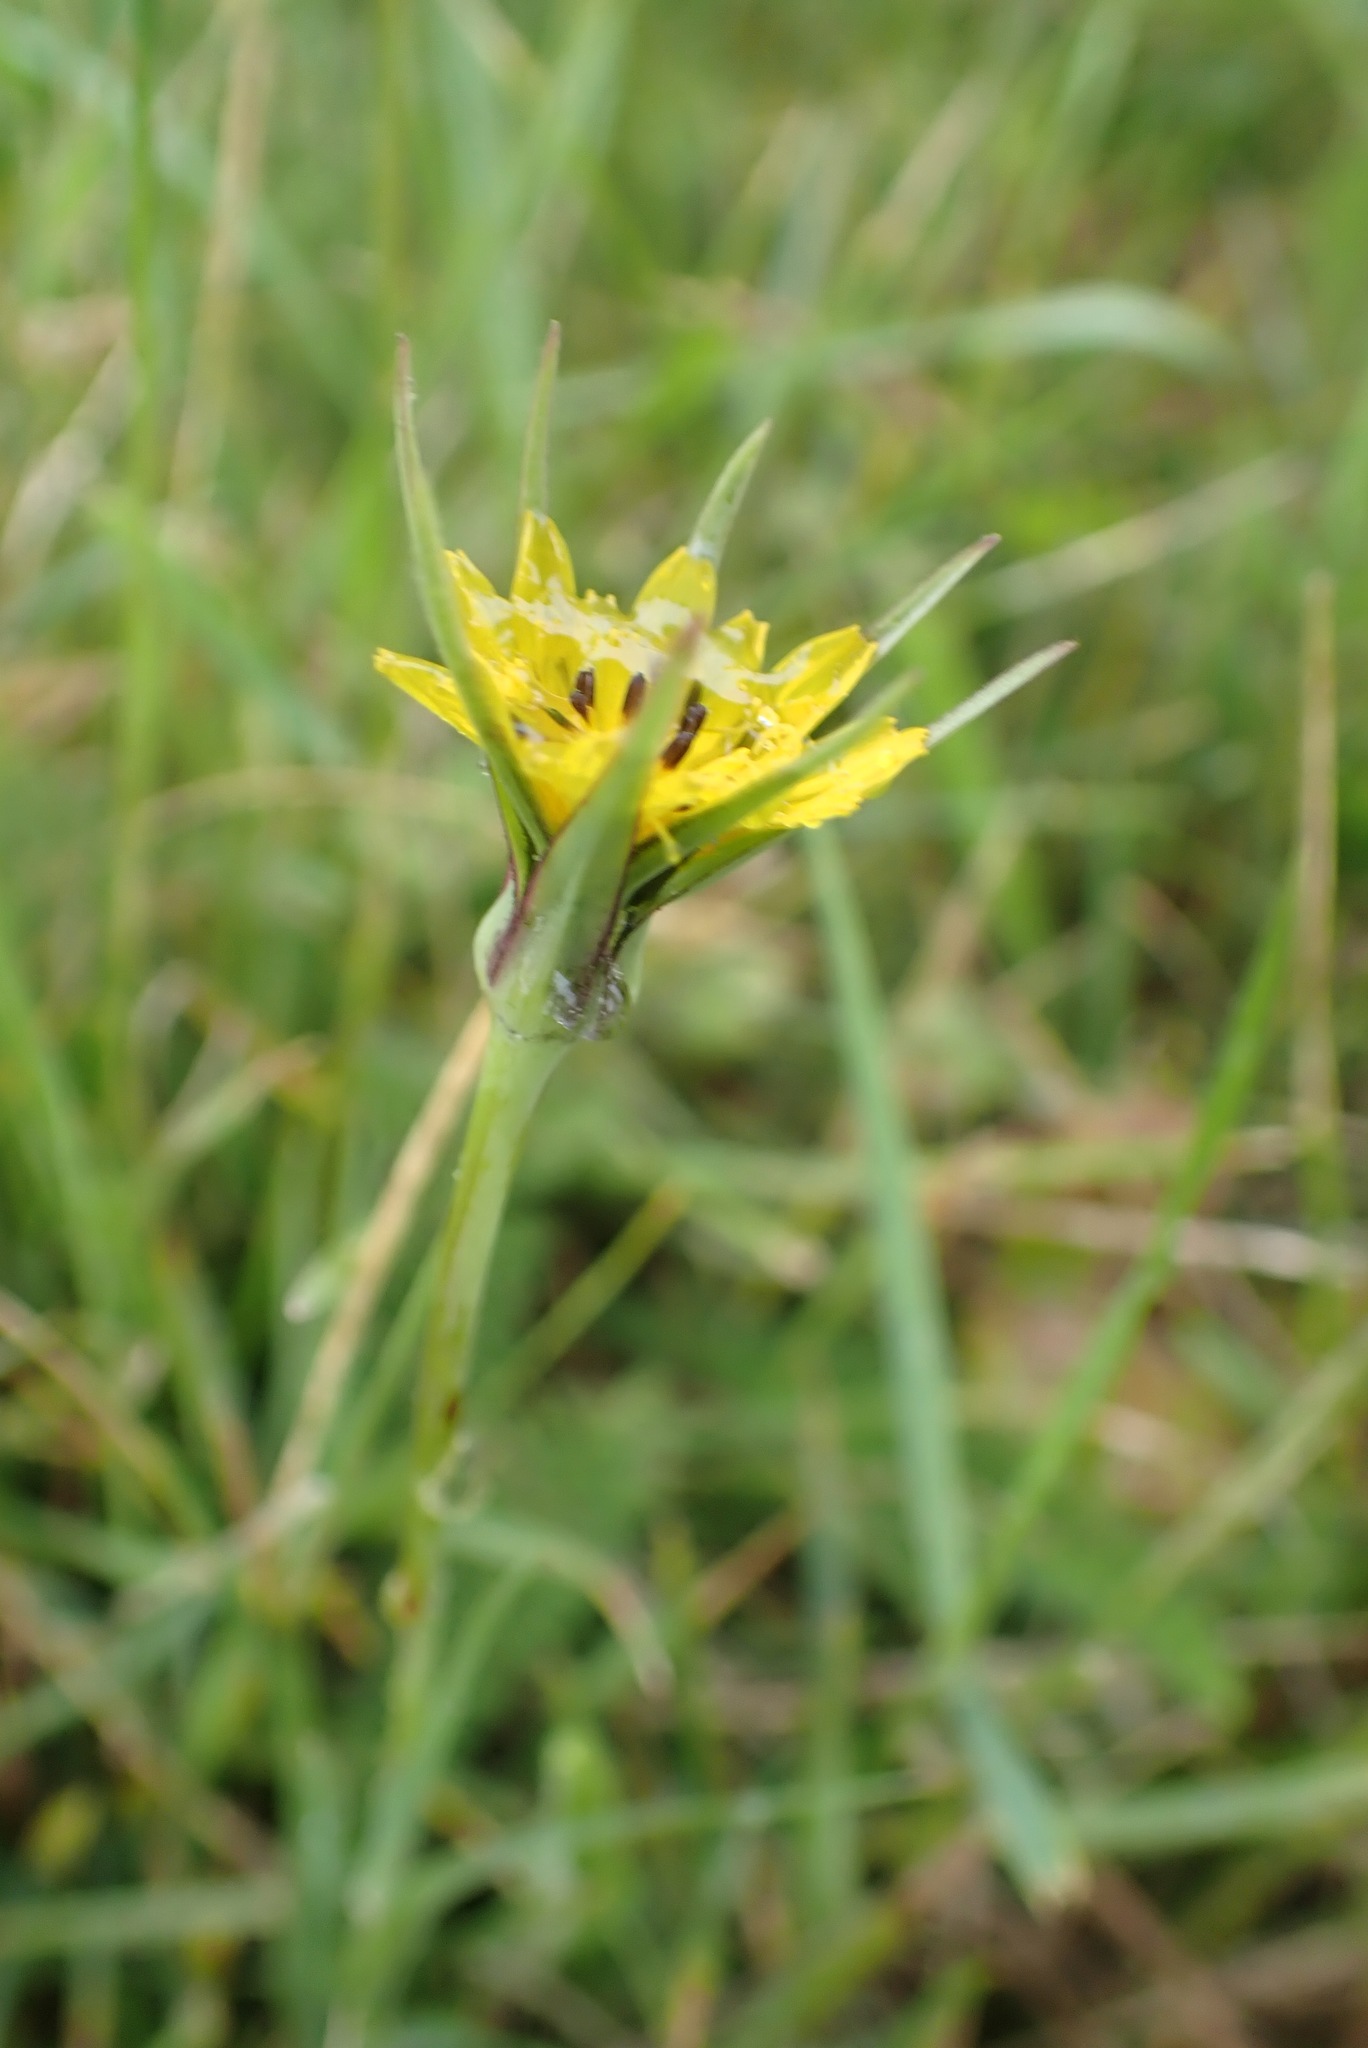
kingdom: Plantae
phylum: Tracheophyta
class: Magnoliopsida
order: Asterales
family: Asteraceae
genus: Tragopogon
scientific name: Tragopogon minor
